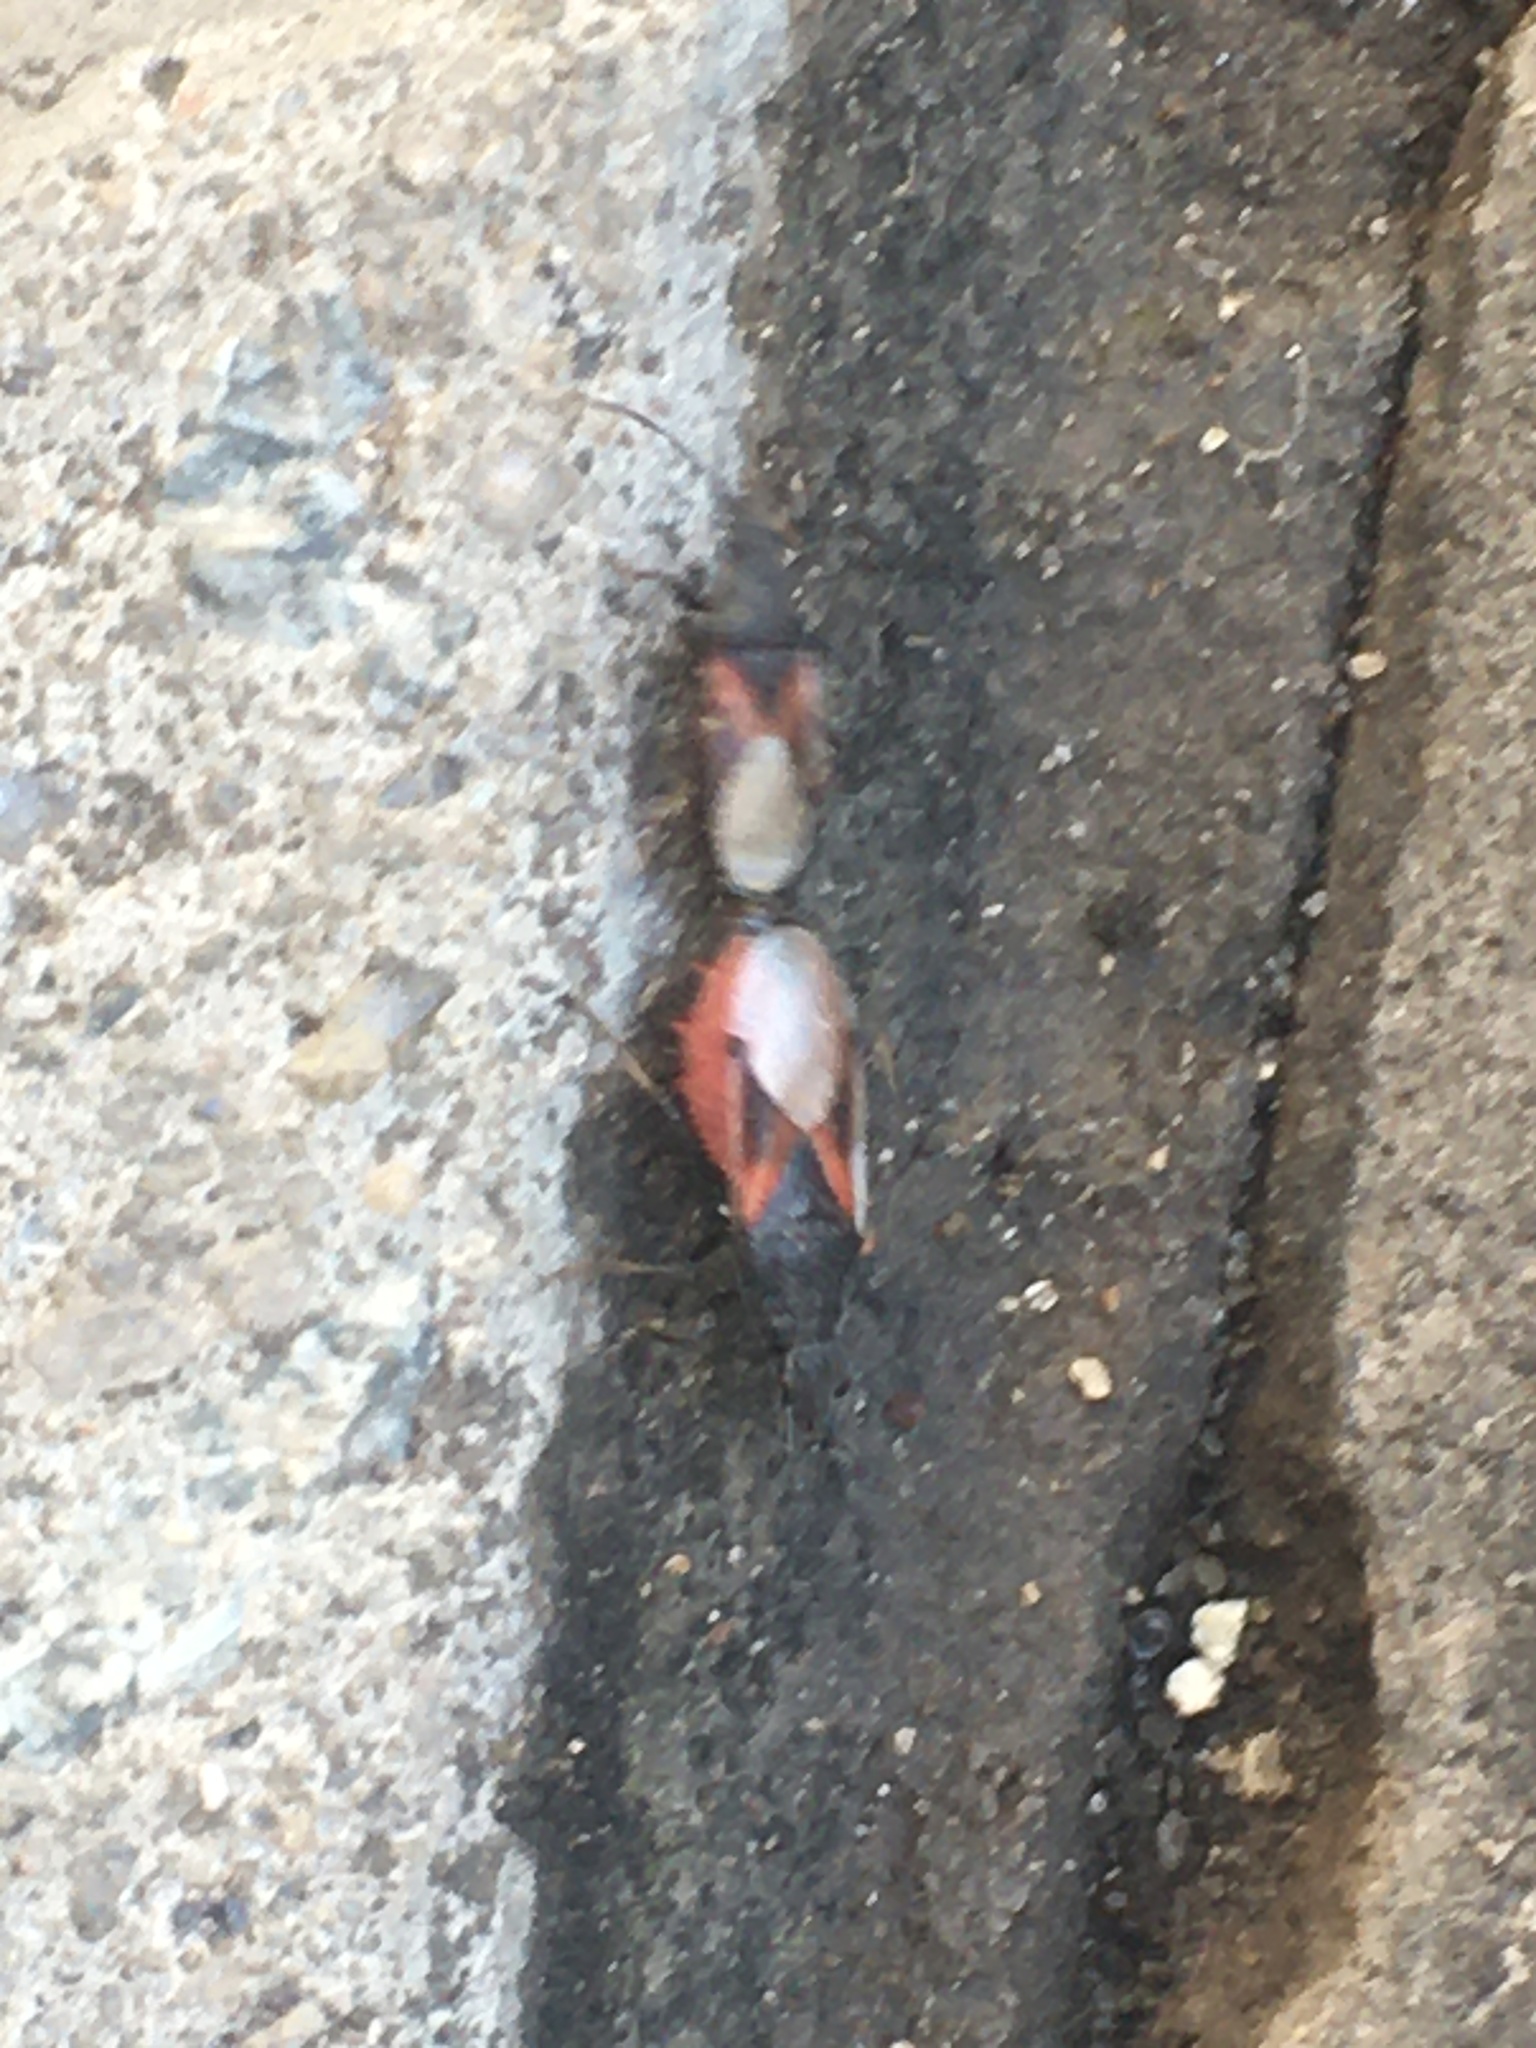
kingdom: Animalia
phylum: Arthropoda
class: Insecta
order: Hemiptera
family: Oxycarenidae
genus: Oxycarenus
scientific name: Oxycarenus lavaterae
